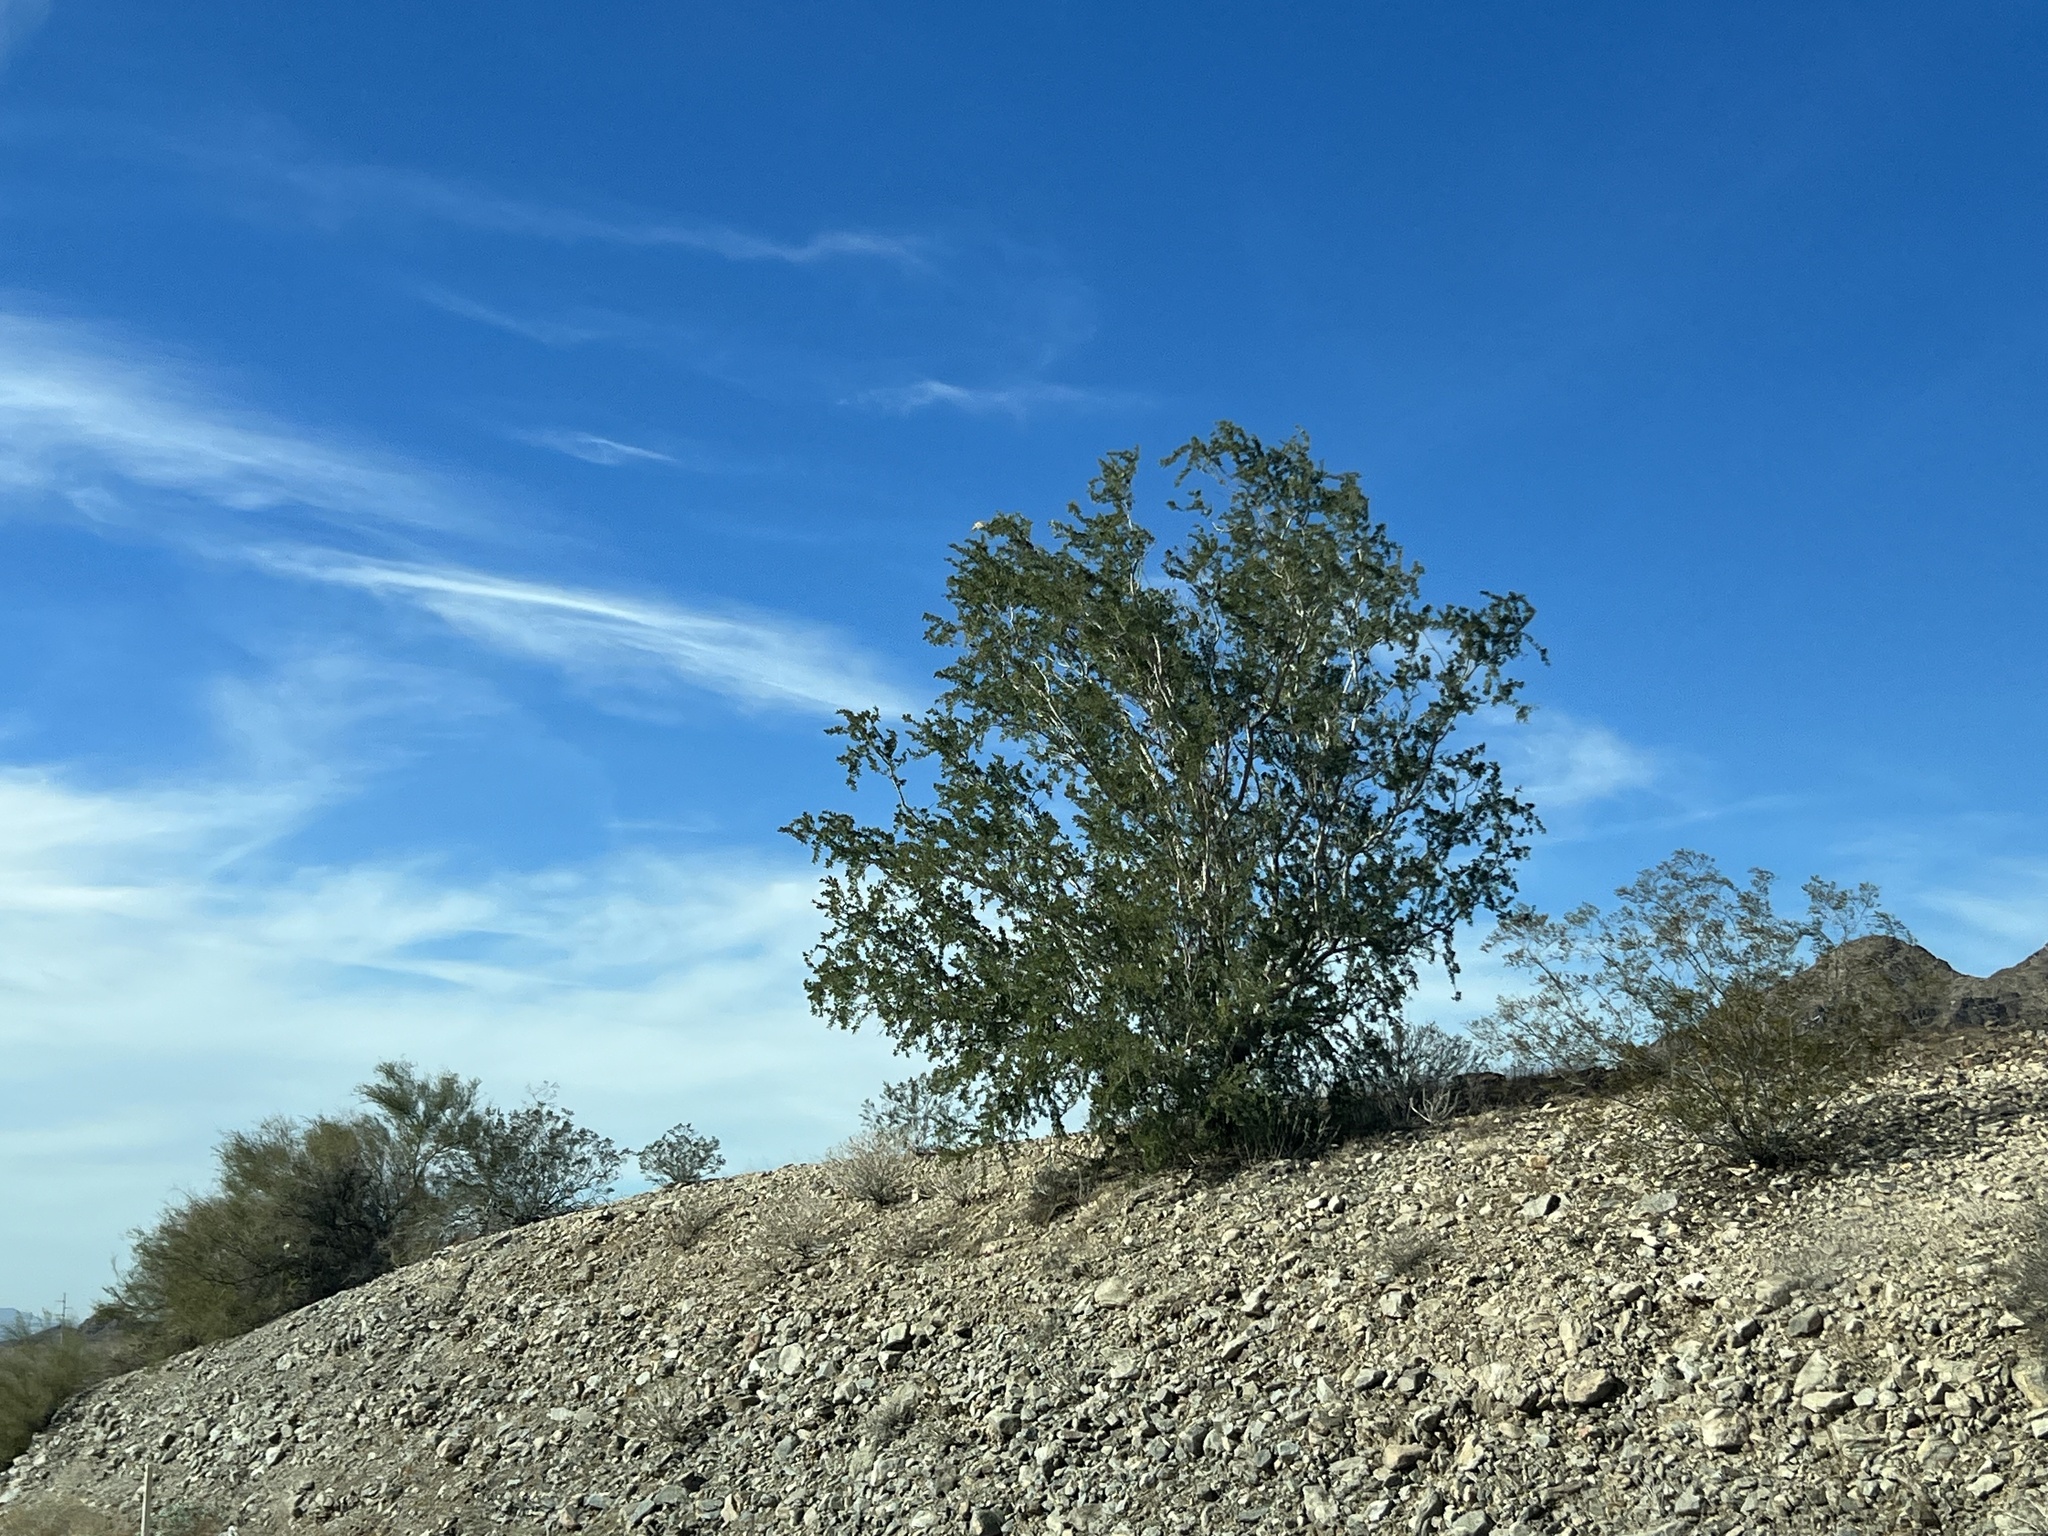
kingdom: Plantae
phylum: Tracheophyta
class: Magnoliopsida
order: Zygophyllales
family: Zygophyllaceae
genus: Larrea
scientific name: Larrea tridentata
